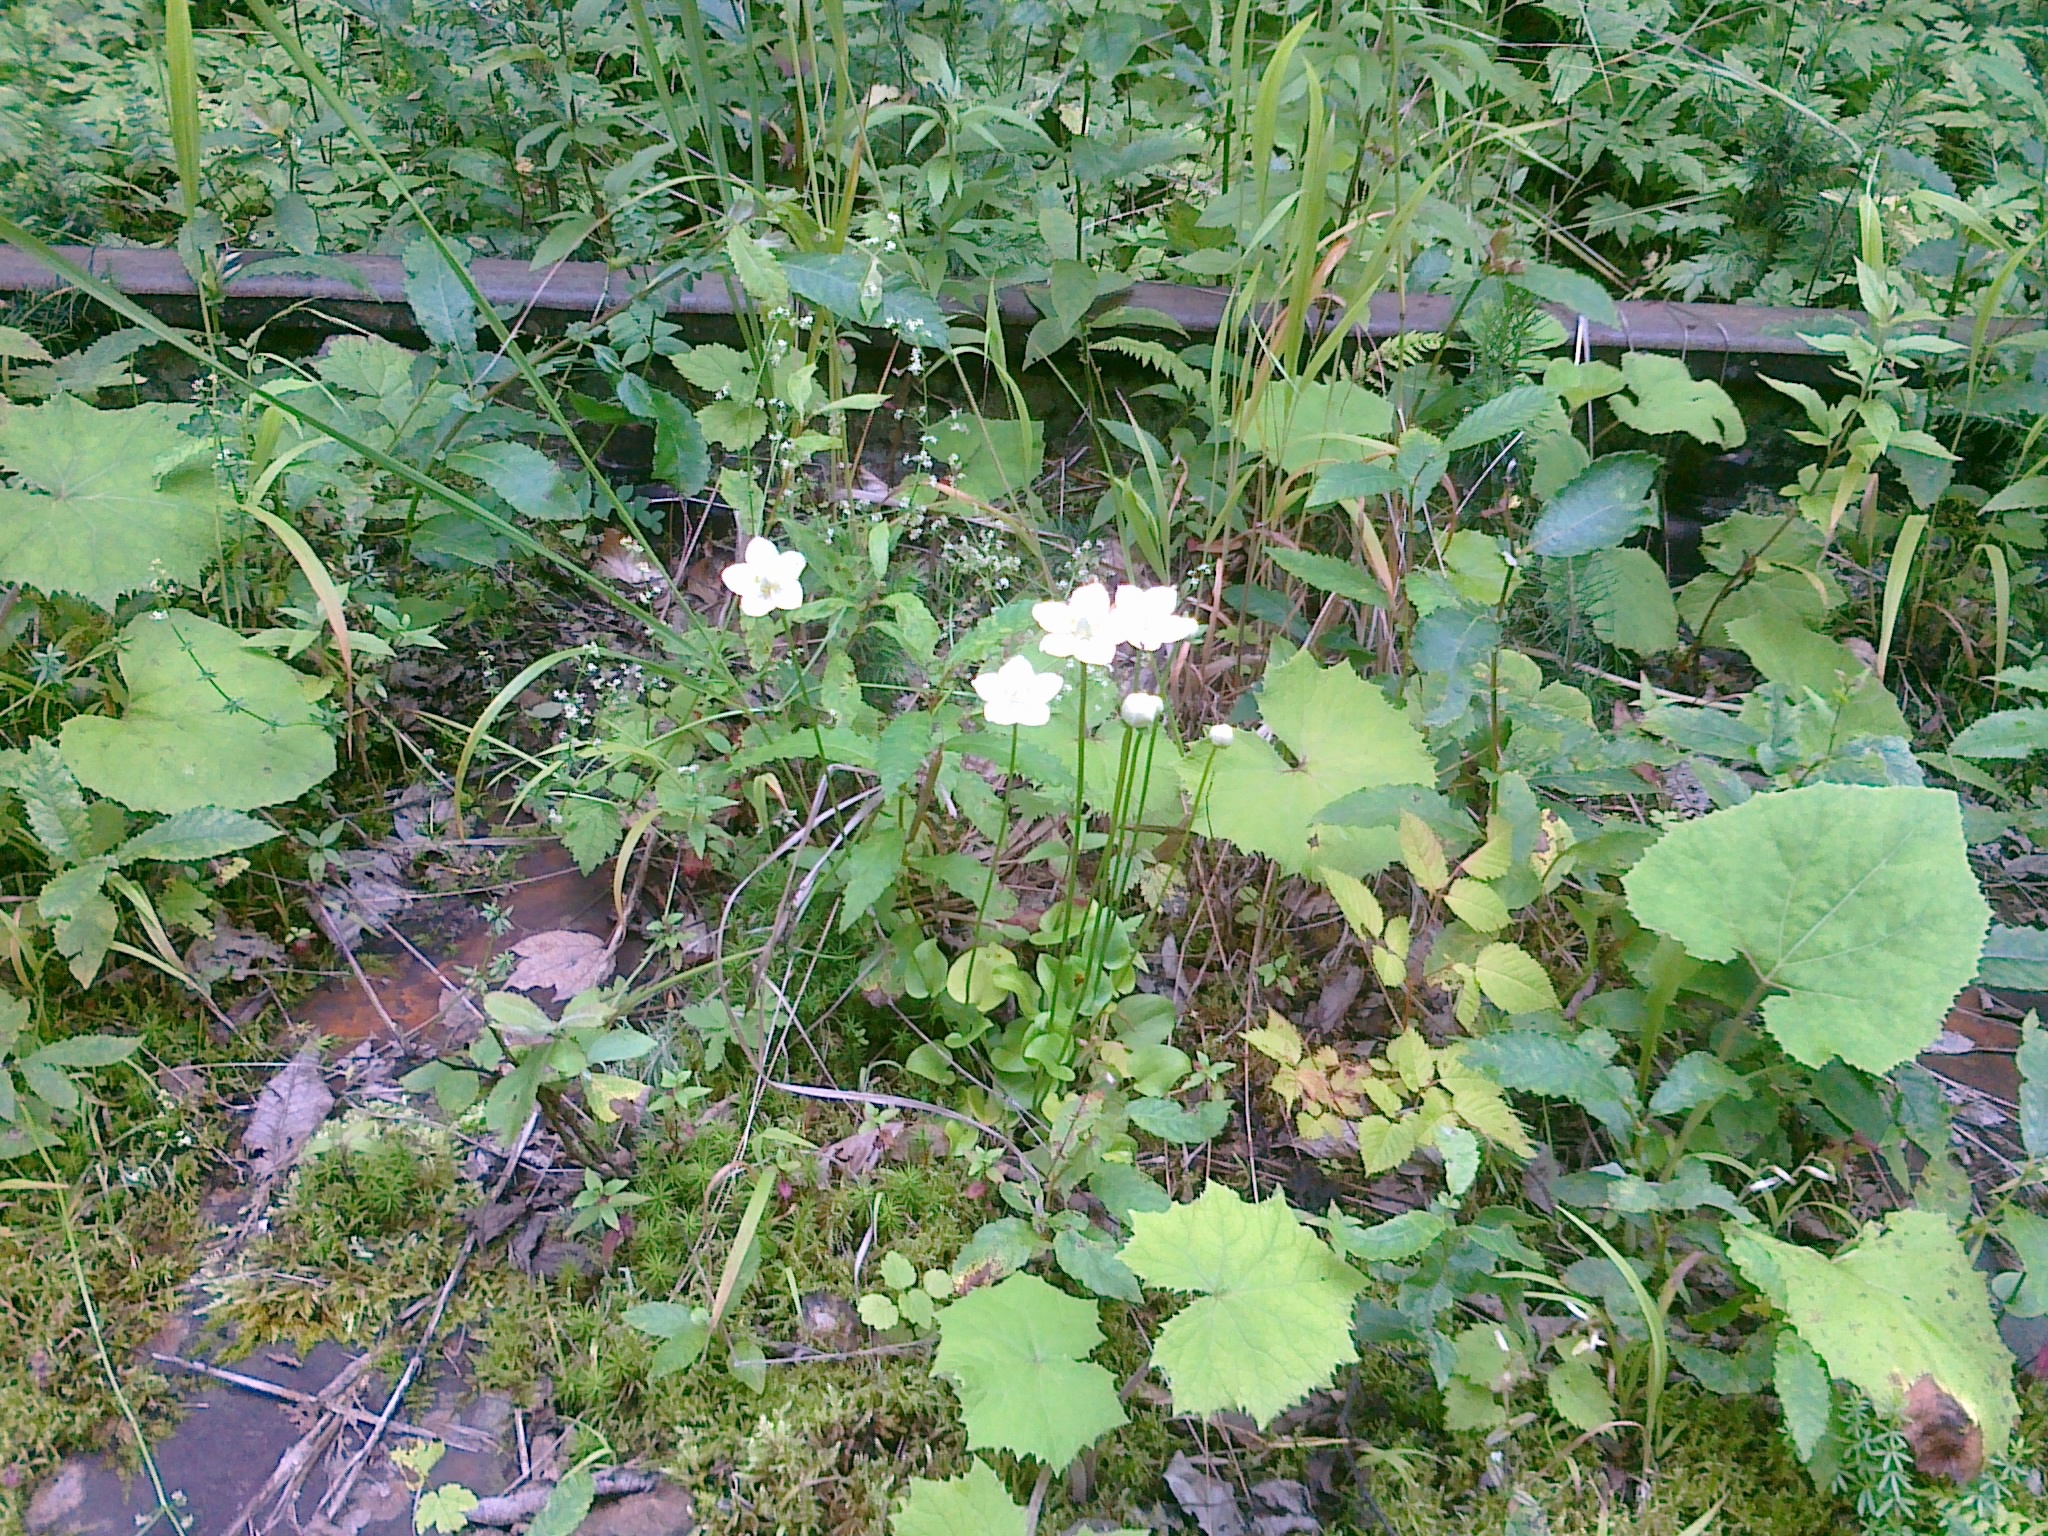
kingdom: Plantae
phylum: Tracheophyta
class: Magnoliopsida
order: Celastrales
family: Parnassiaceae
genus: Parnassia
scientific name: Parnassia palustris
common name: Grass-of-parnassus
